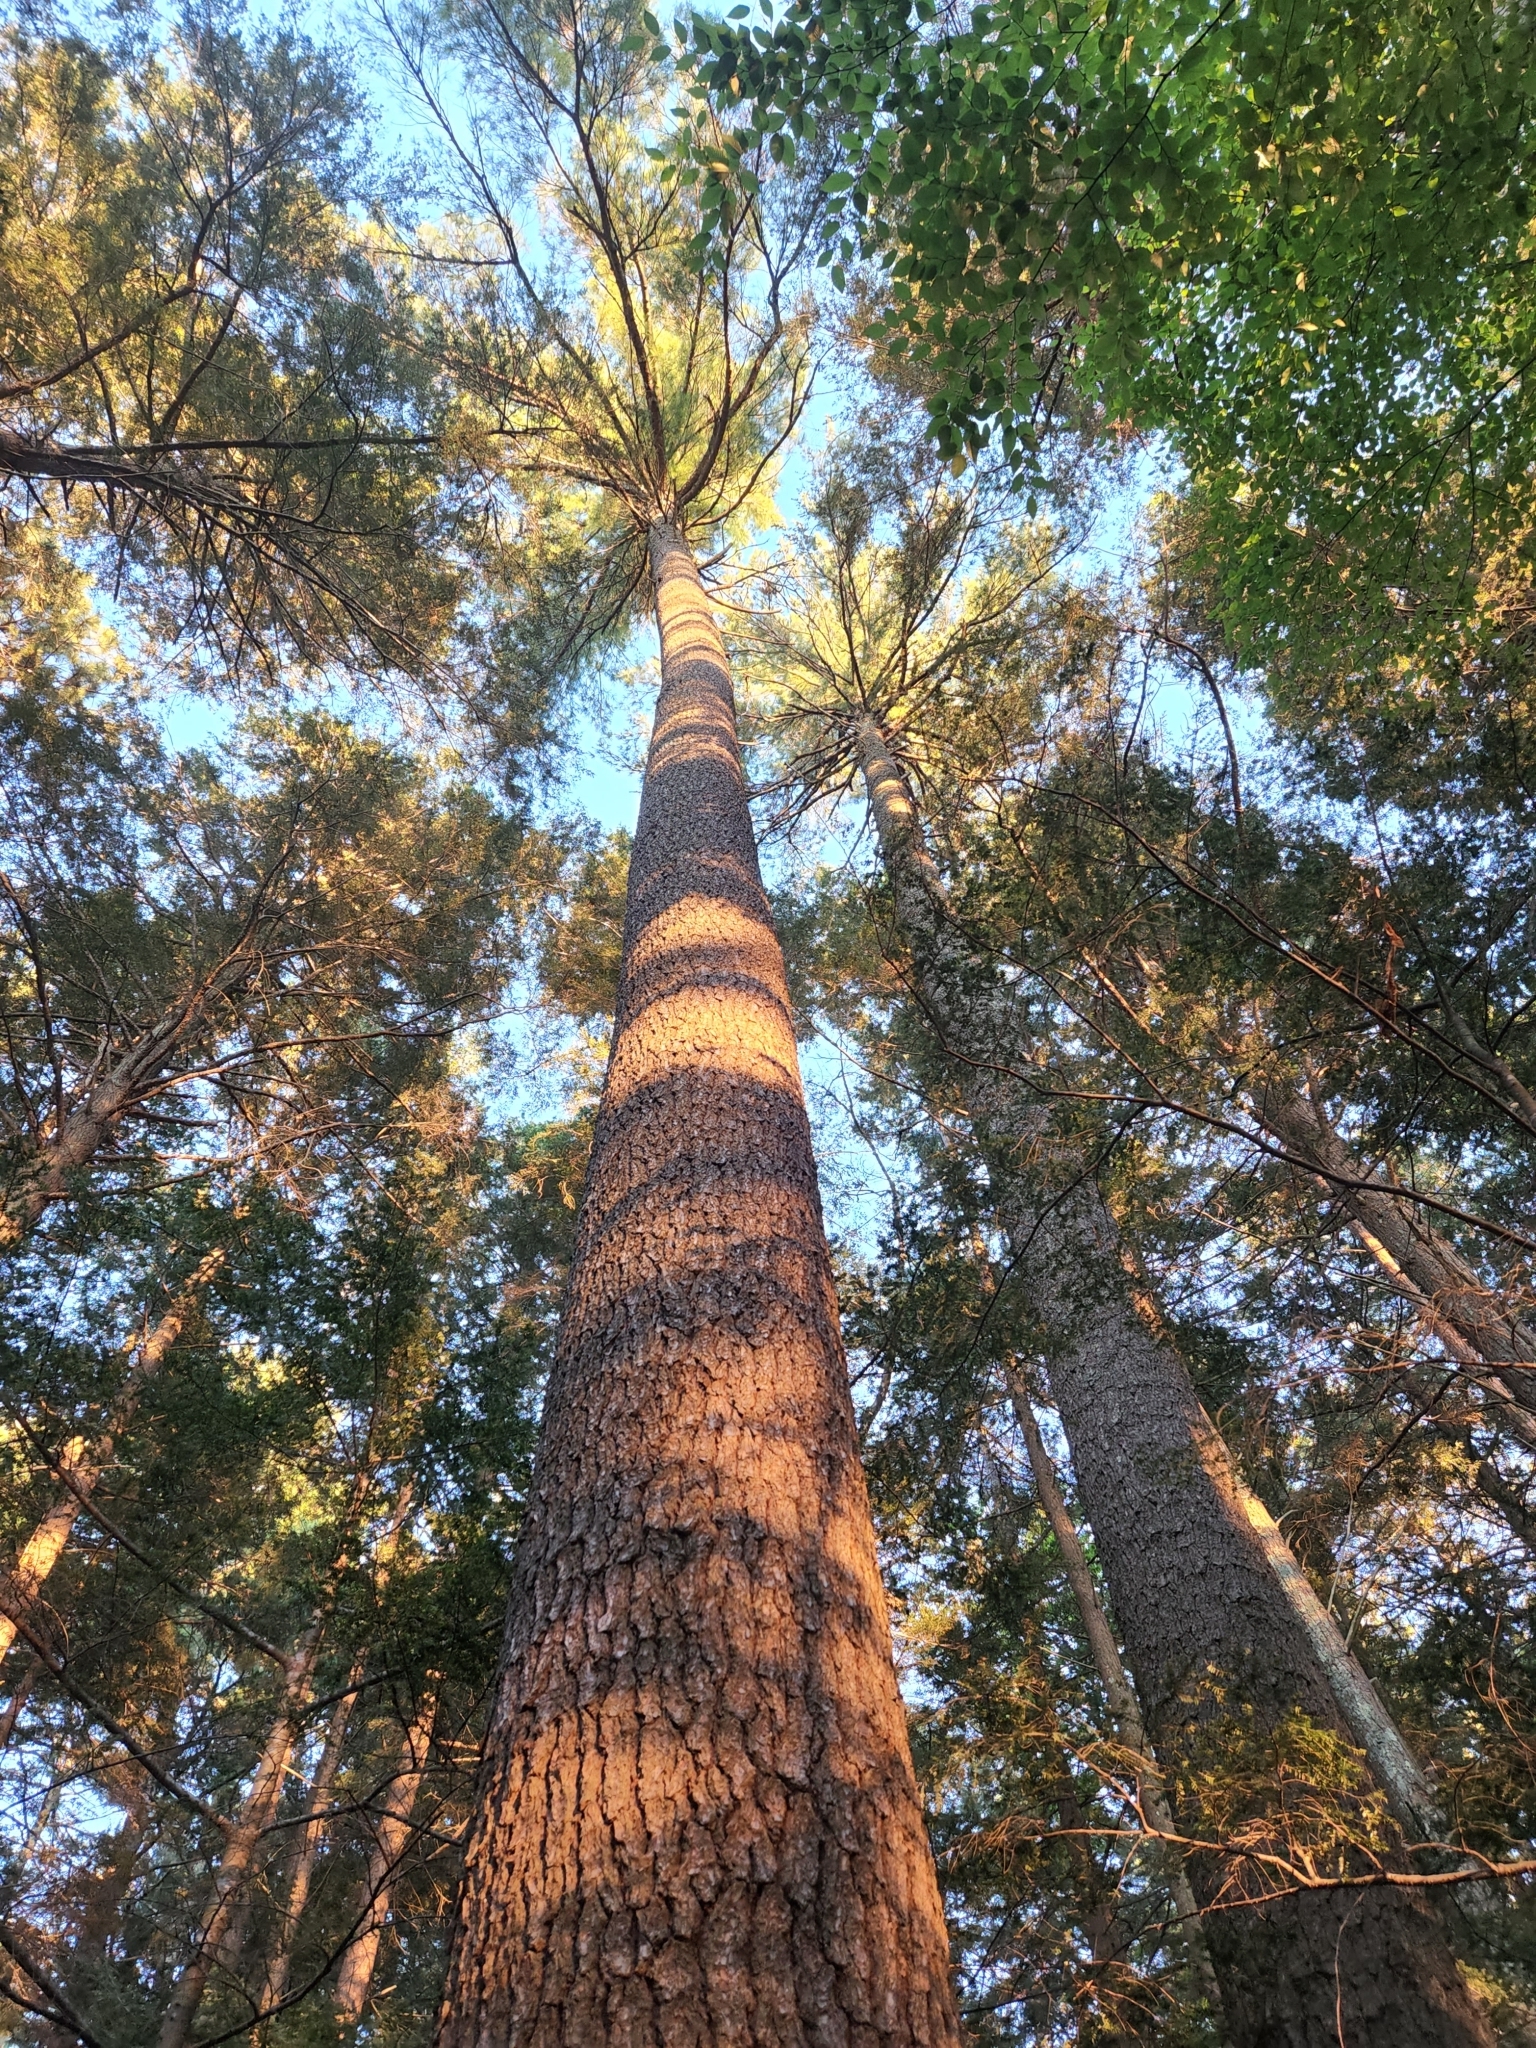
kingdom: Plantae
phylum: Tracheophyta
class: Pinopsida
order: Pinales
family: Pinaceae
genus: Pinus
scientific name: Pinus strobus
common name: Weymouth pine
